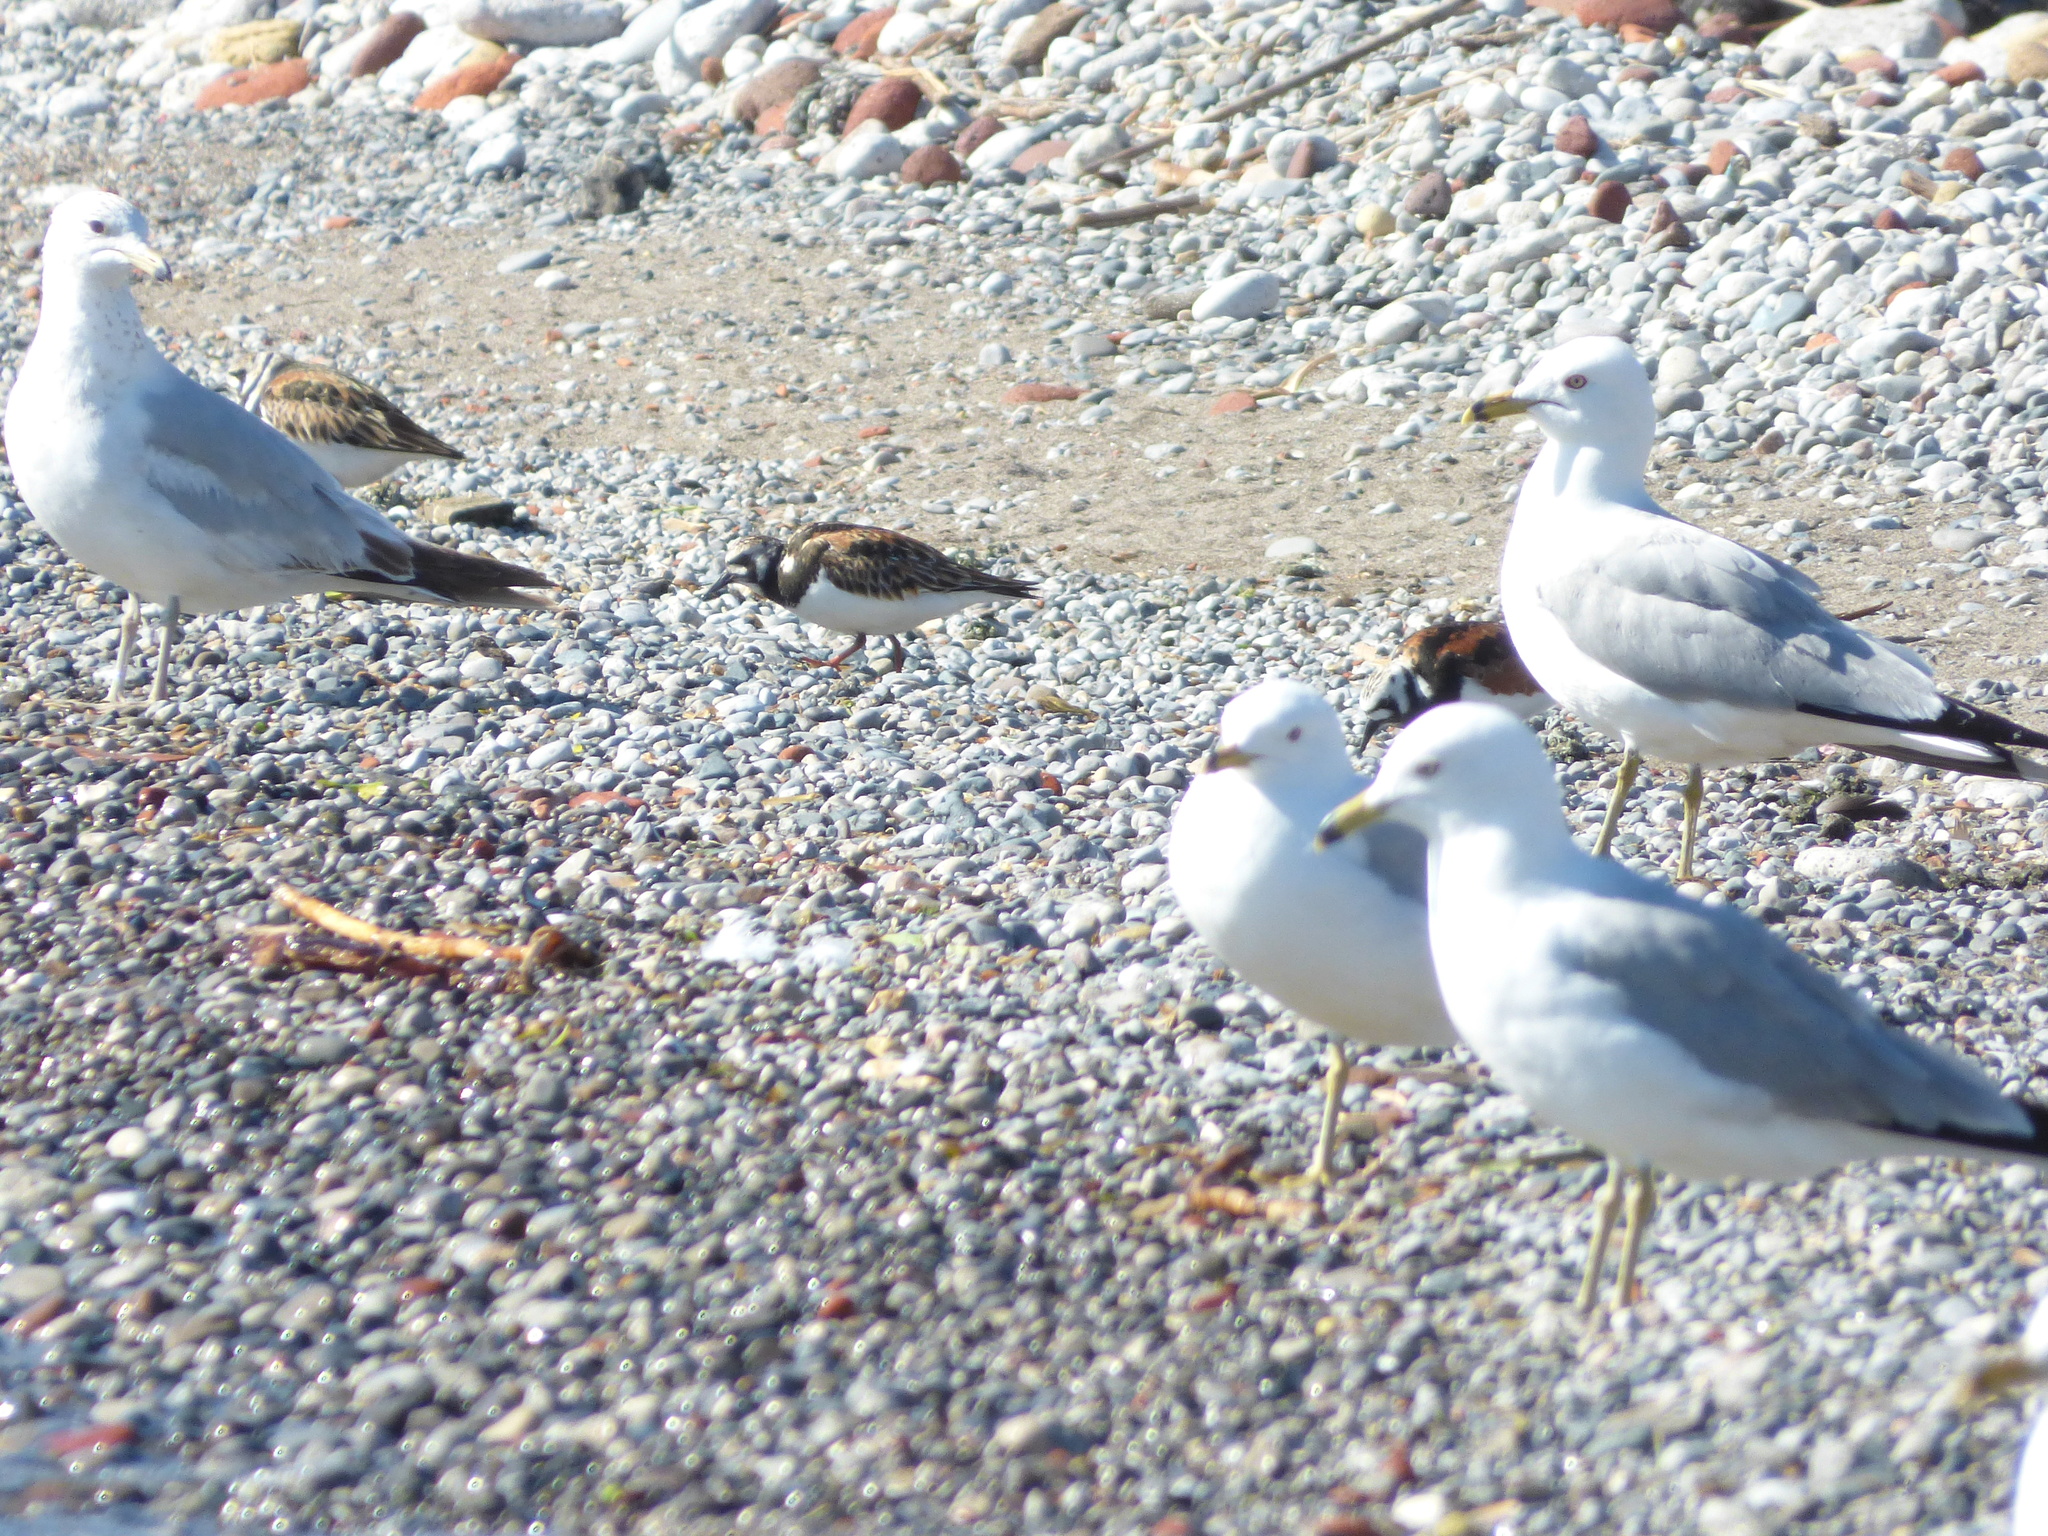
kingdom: Animalia
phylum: Chordata
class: Aves
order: Charadriiformes
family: Scolopacidae
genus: Arenaria
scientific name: Arenaria interpres
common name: Ruddy turnstone
